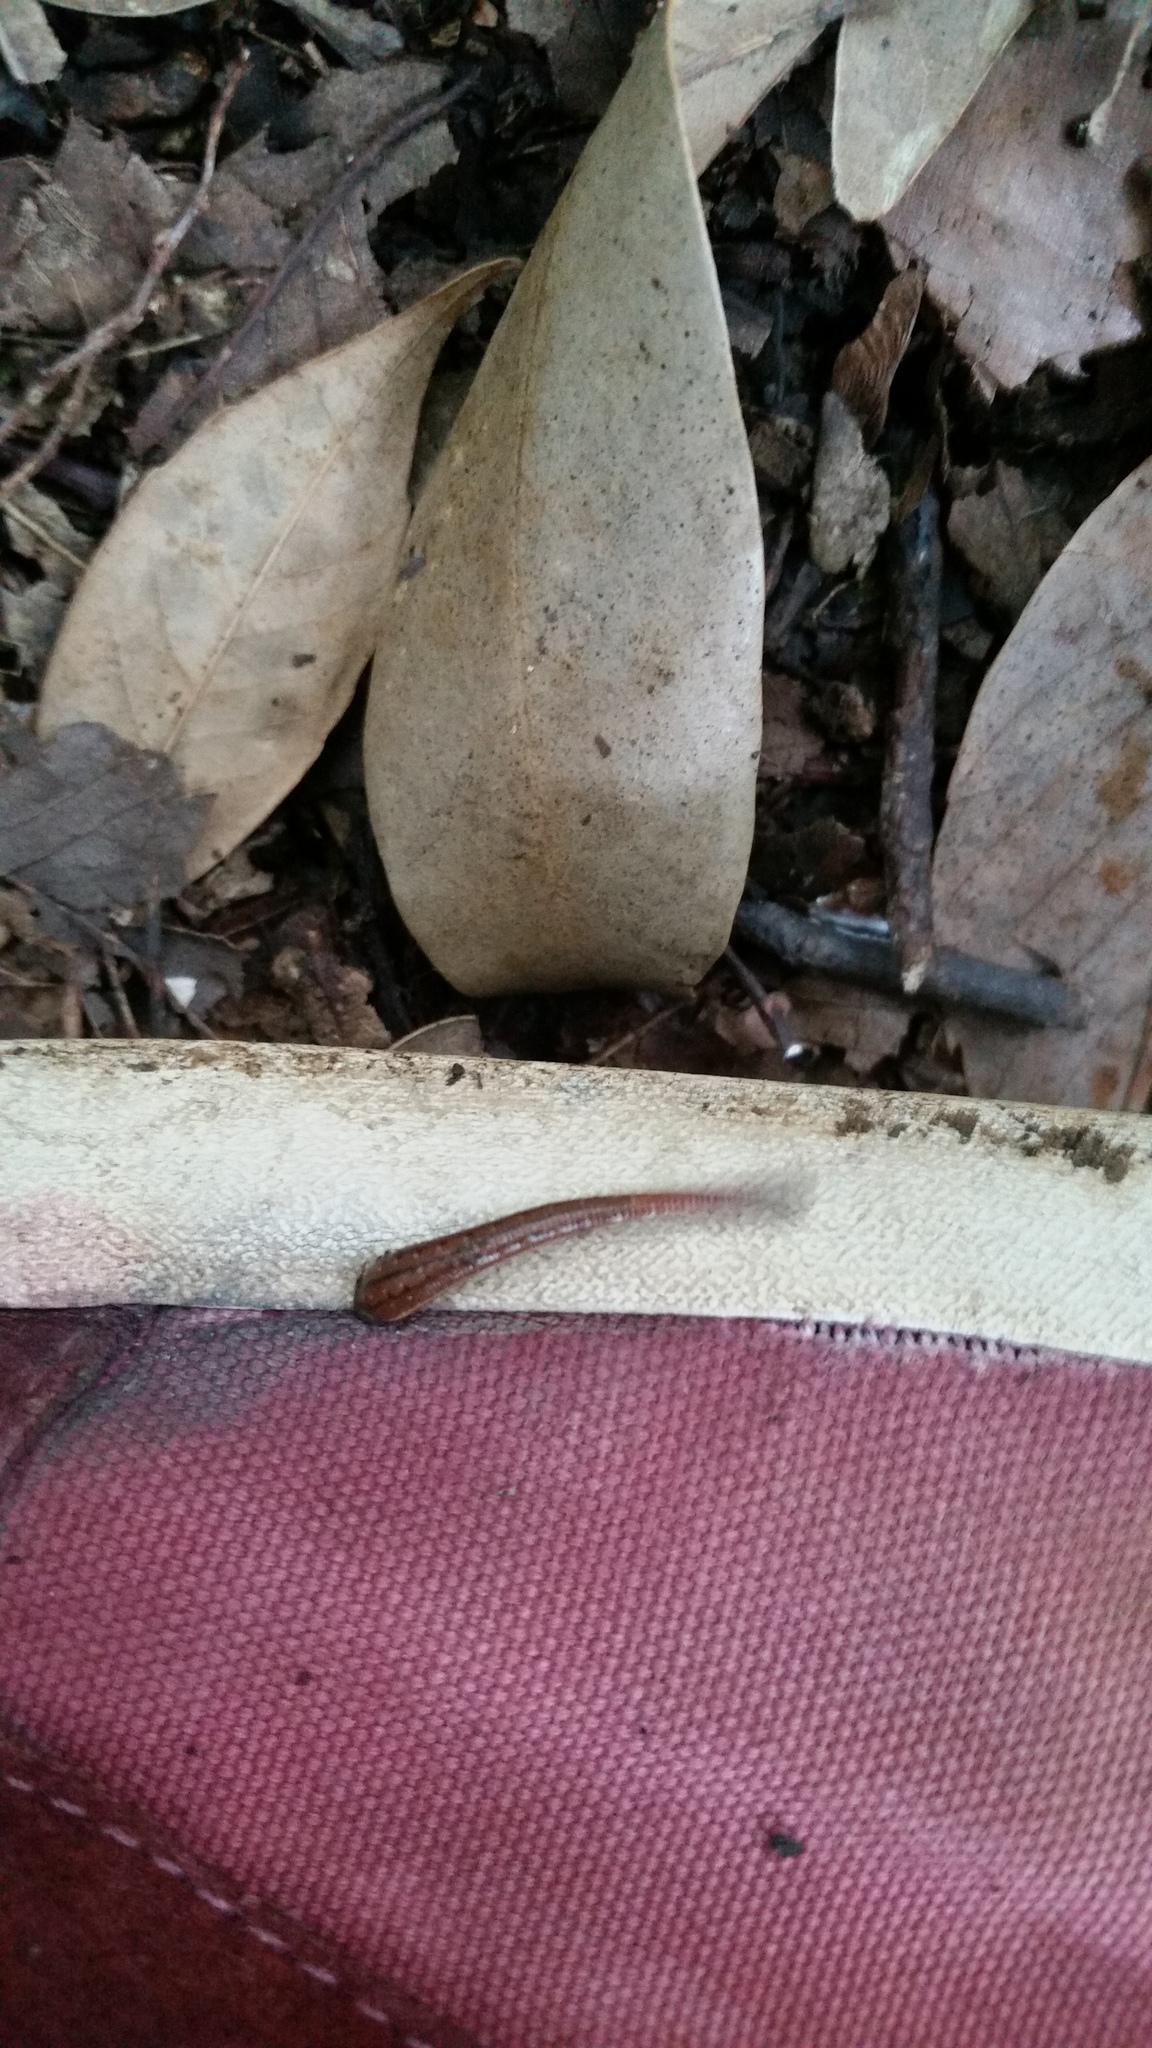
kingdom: Animalia
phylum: Annelida
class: Clitellata
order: Arhynchobdellida
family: Haemadipsidae
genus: Haemadipsa
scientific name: Haemadipsa zeylanica
